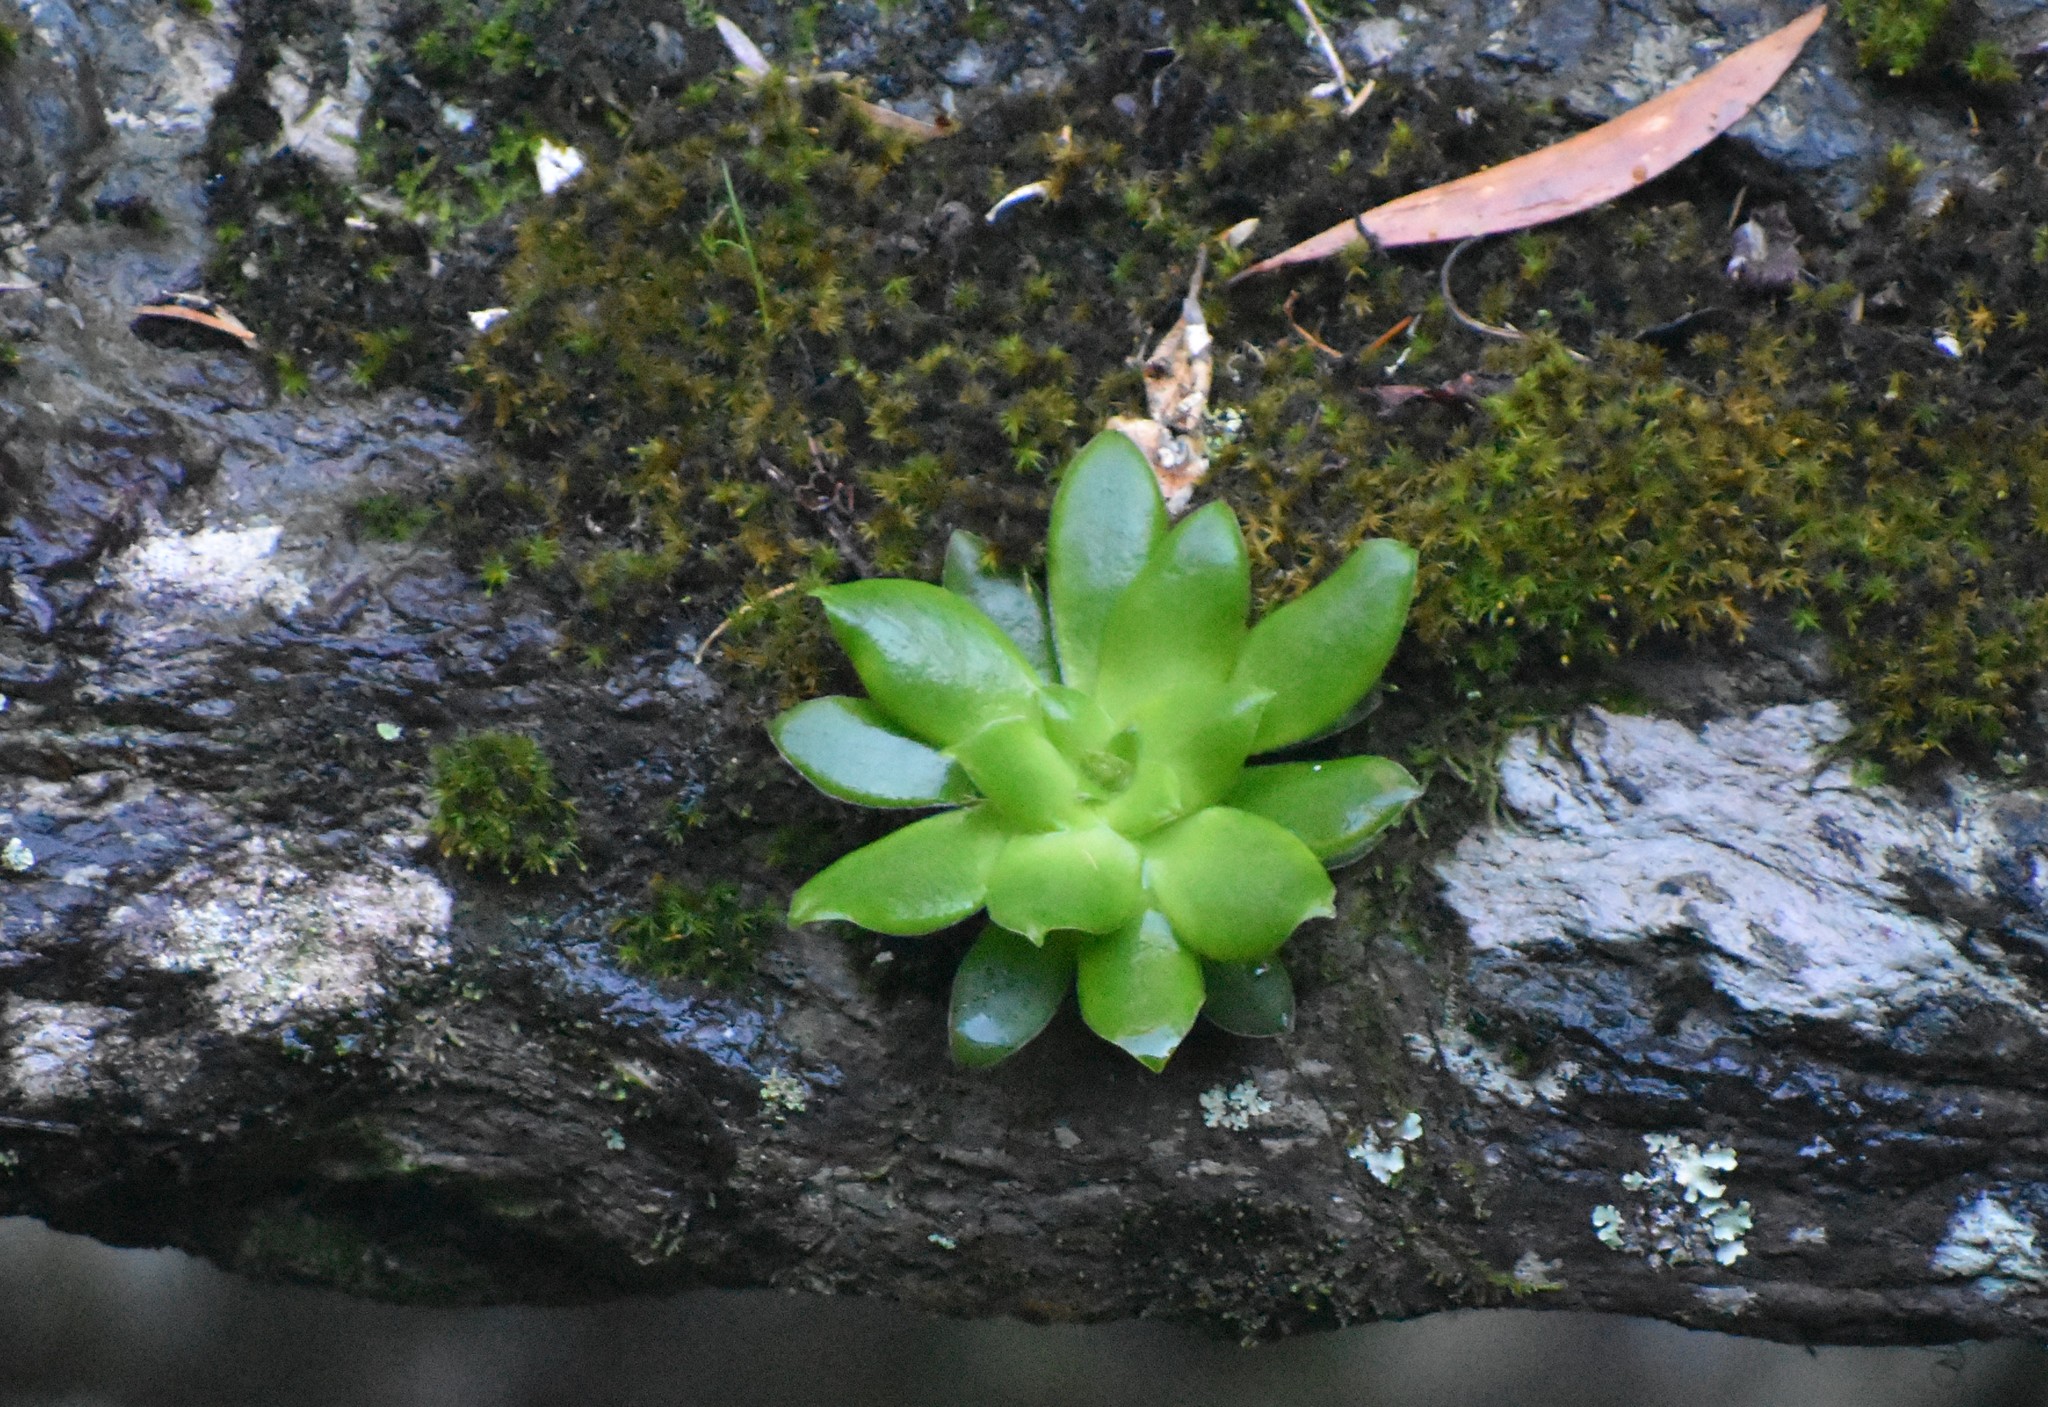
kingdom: Plantae
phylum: Tracheophyta
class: Magnoliopsida
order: Saxifragales
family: Crassulaceae
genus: Crassula
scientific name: Crassula orbicularis
